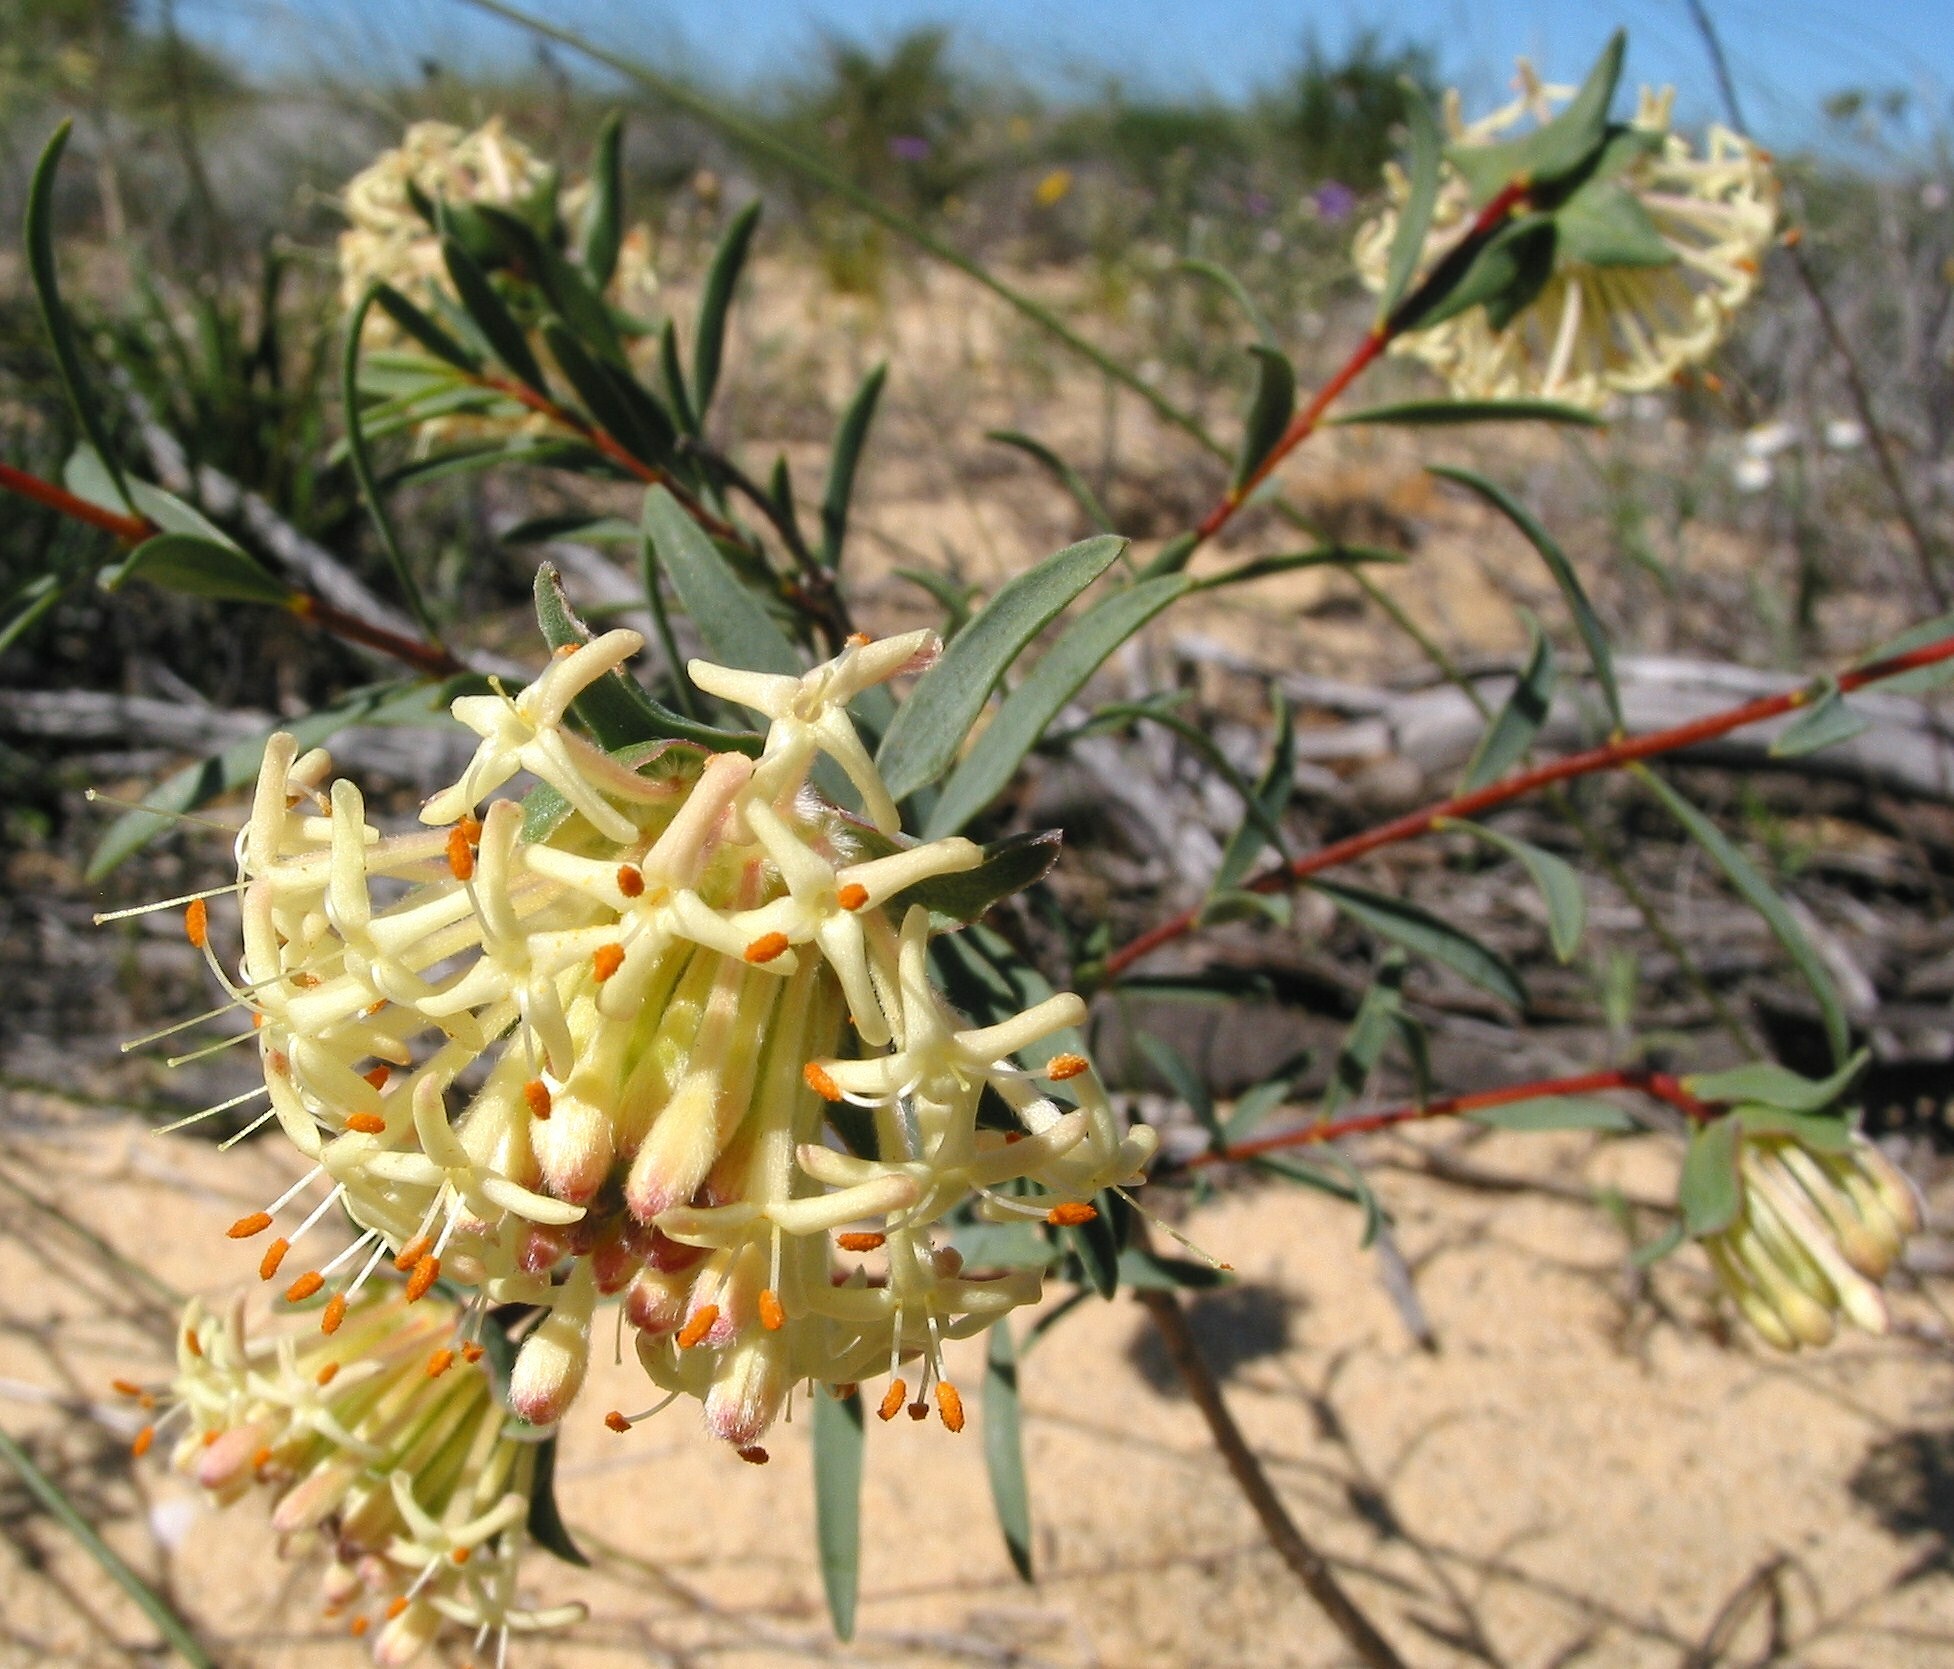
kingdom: Plantae
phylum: Tracheophyta
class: Magnoliopsida
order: Malvales
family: Thymelaeaceae
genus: Pimelea
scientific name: Pimelea sessilis
